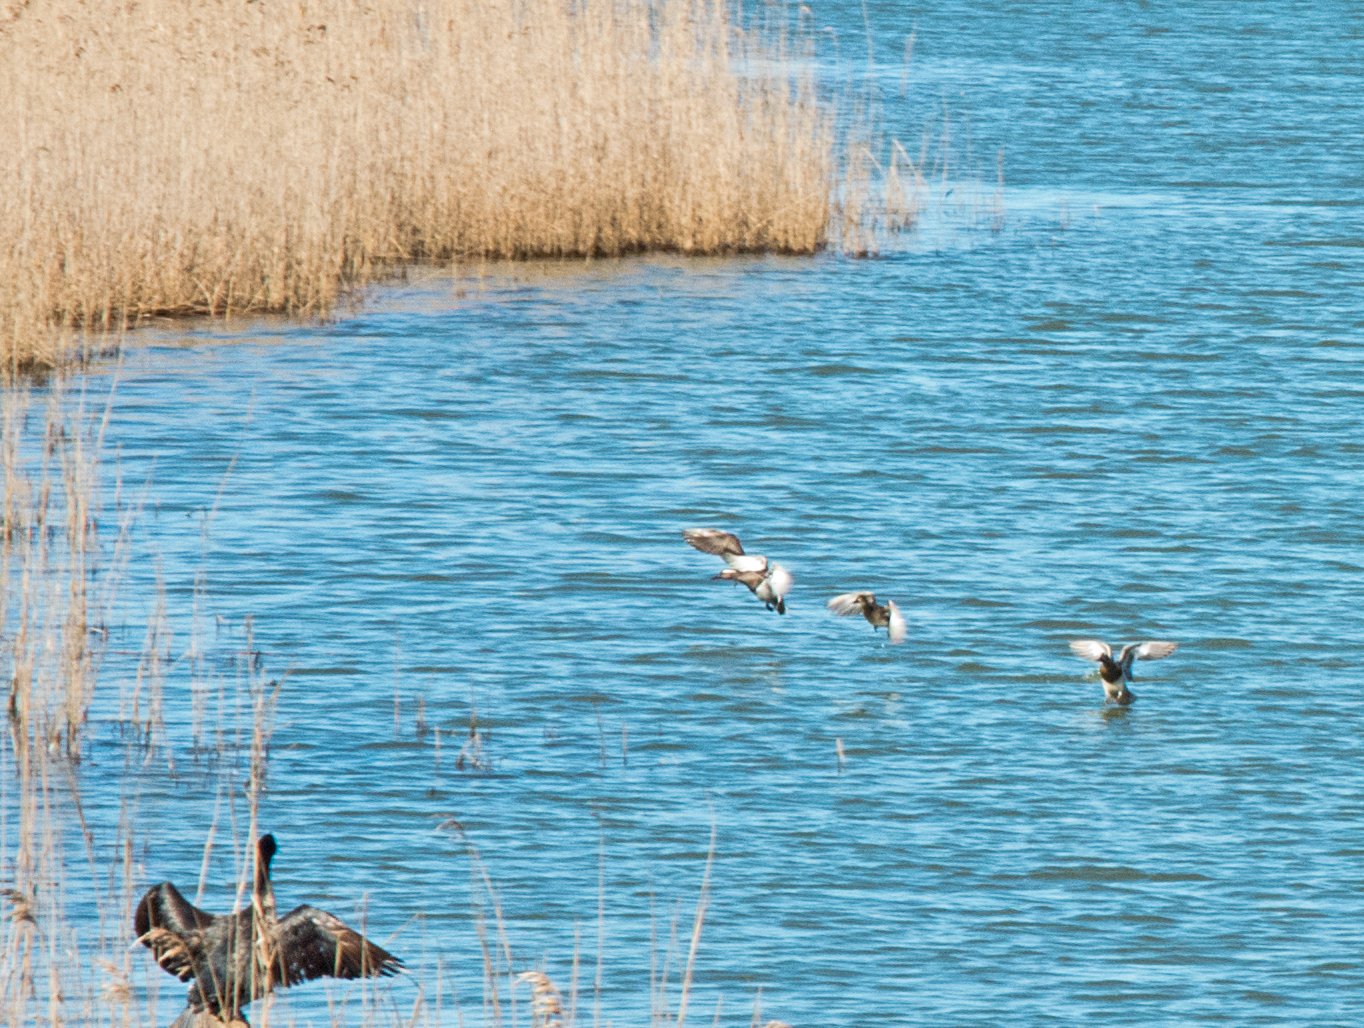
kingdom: Animalia
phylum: Chordata
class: Aves
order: Anseriformes
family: Anatidae
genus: Spatula
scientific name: Spatula querquedula
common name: Garganey
